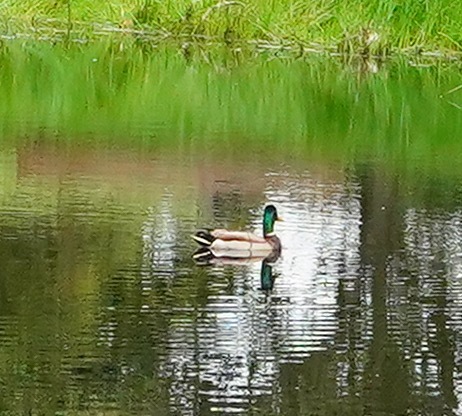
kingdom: Animalia
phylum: Chordata
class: Aves
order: Anseriformes
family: Anatidae
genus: Anas
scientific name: Anas platyrhynchos
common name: Mallard
